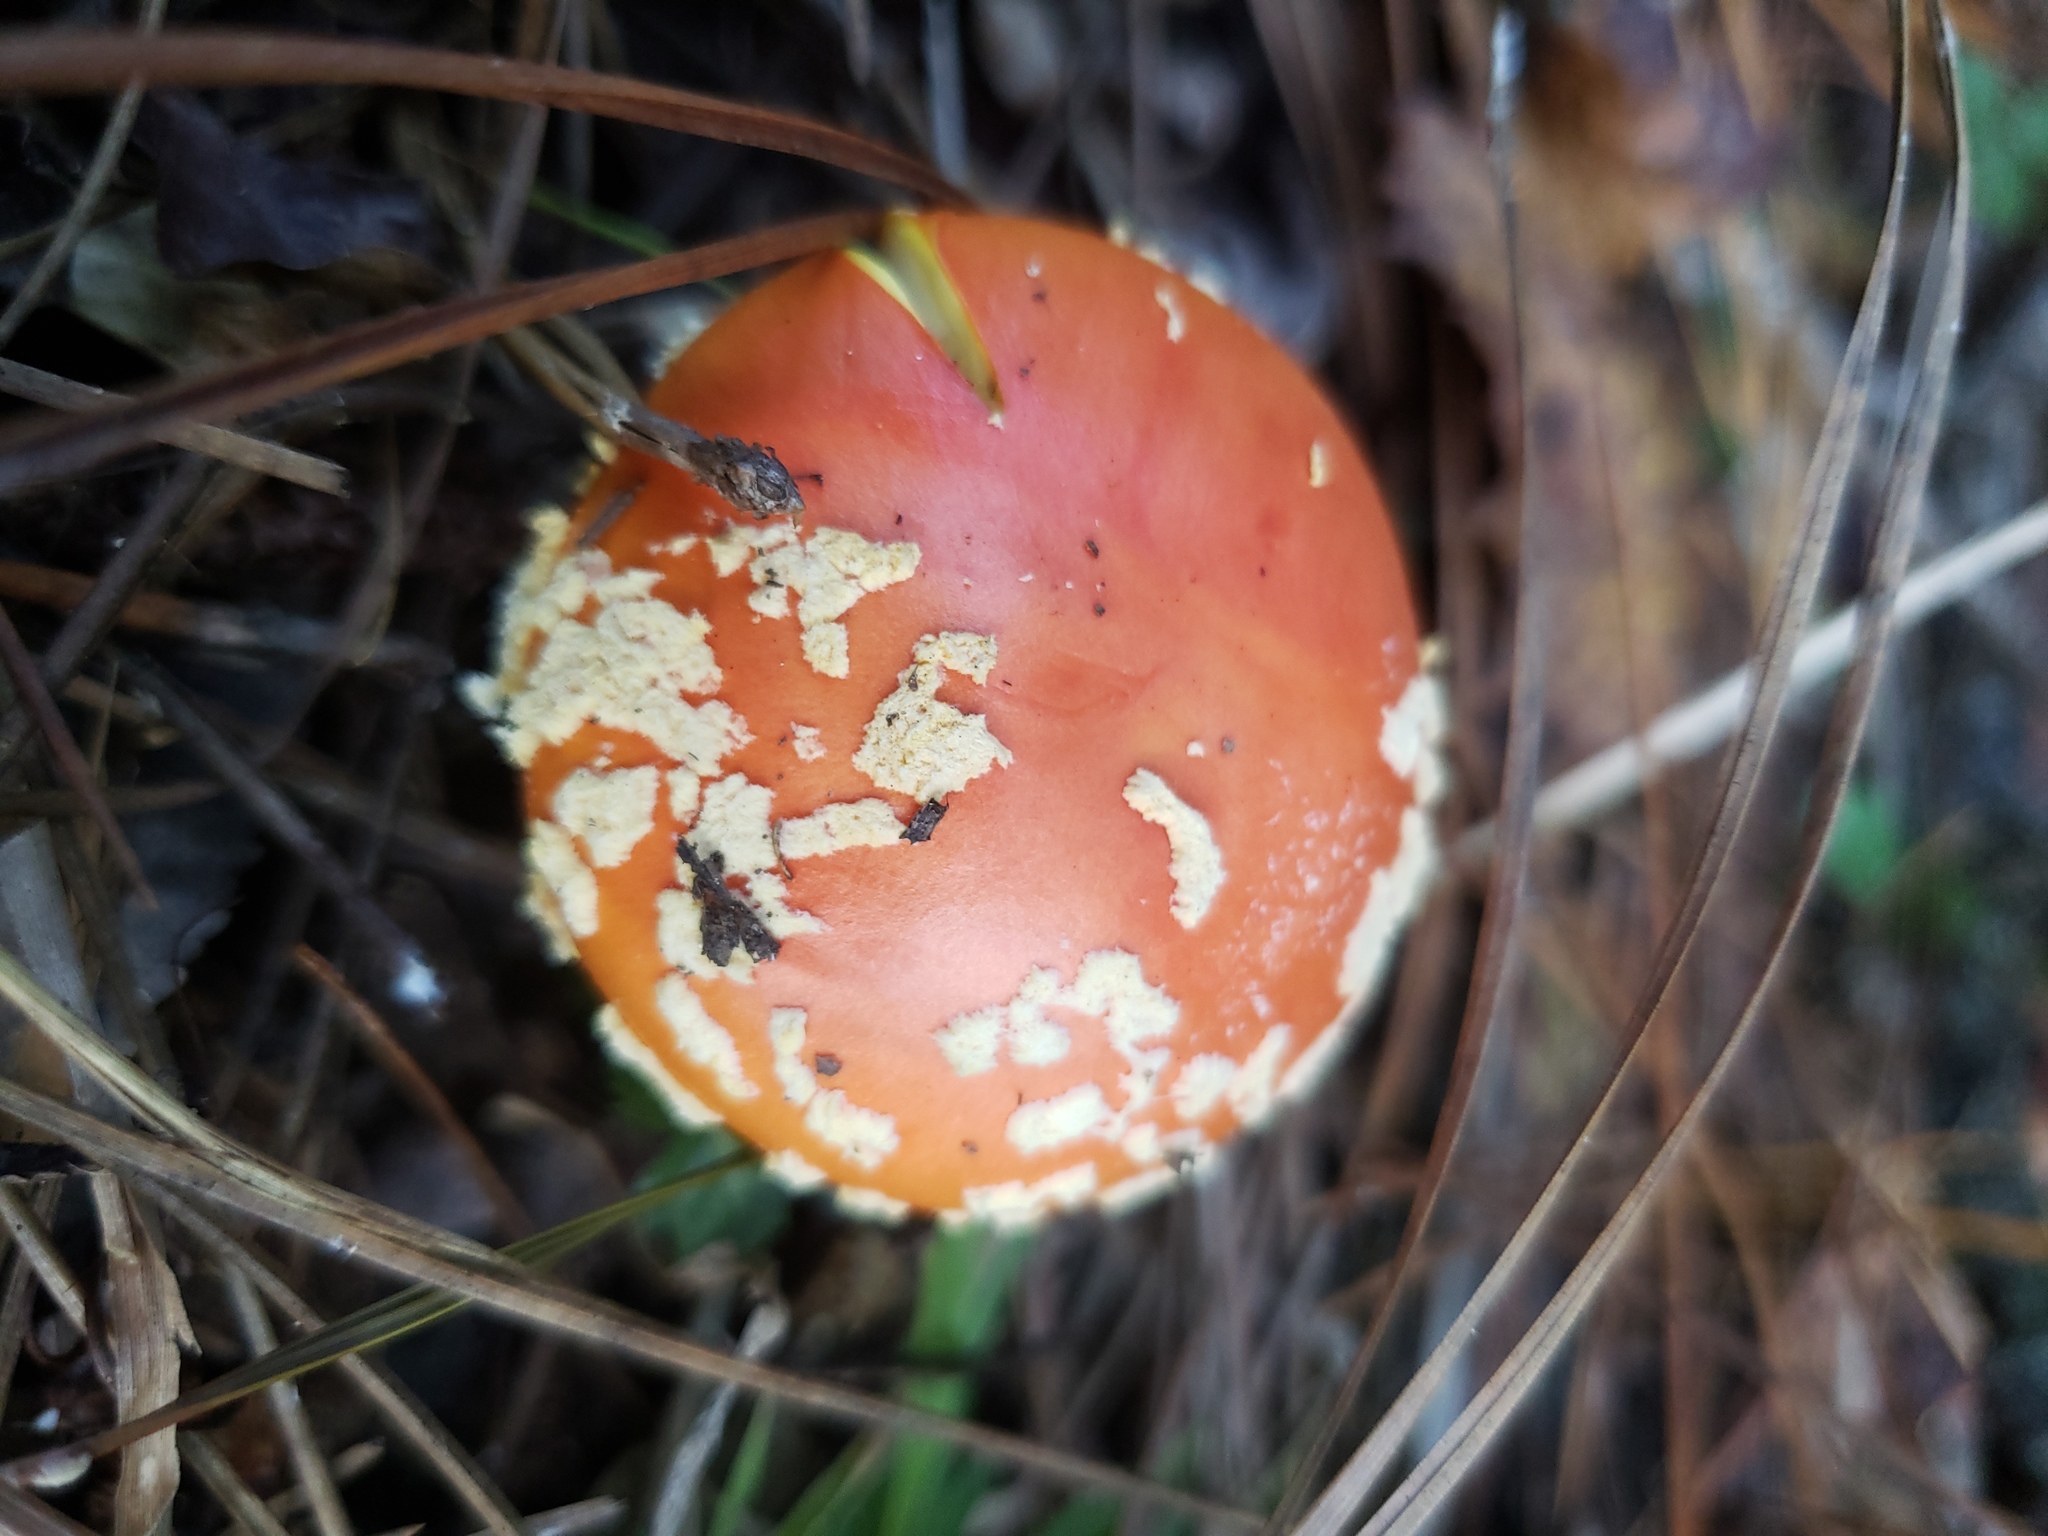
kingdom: Fungi
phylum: Basidiomycota
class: Agaricomycetes
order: Agaricales
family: Amanitaceae
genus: Amanita
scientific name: Amanita persicina
